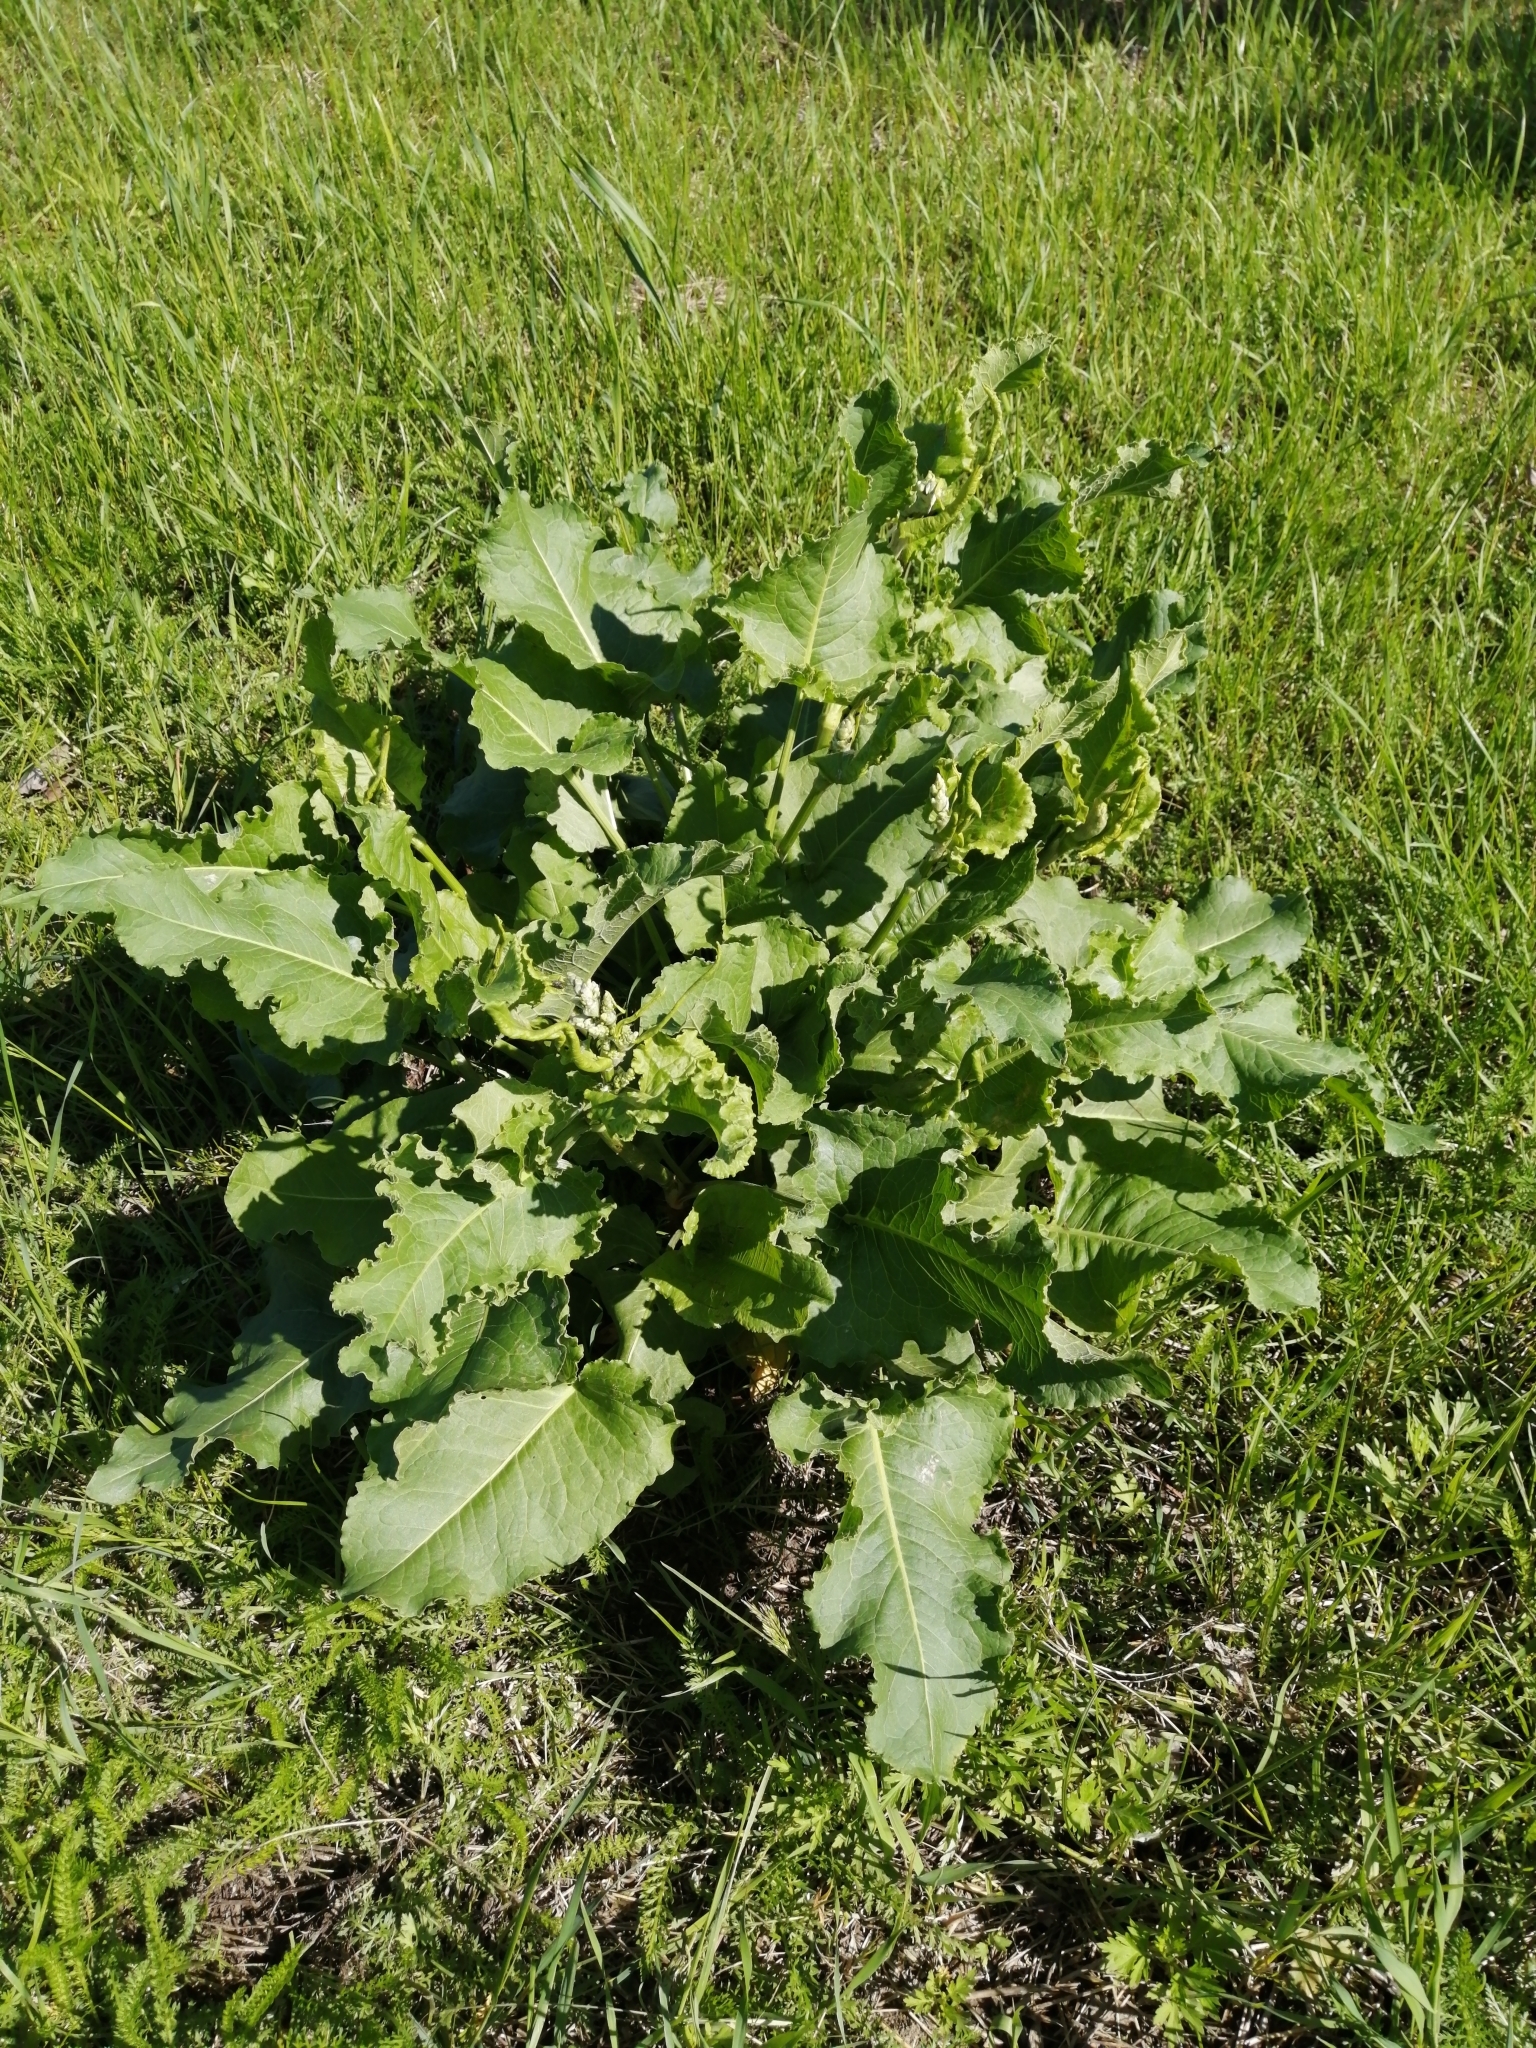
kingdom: Plantae
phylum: Tracheophyta
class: Magnoliopsida
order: Caryophyllales
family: Polygonaceae
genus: Rumex
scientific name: Rumex confertus
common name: Russian dock
